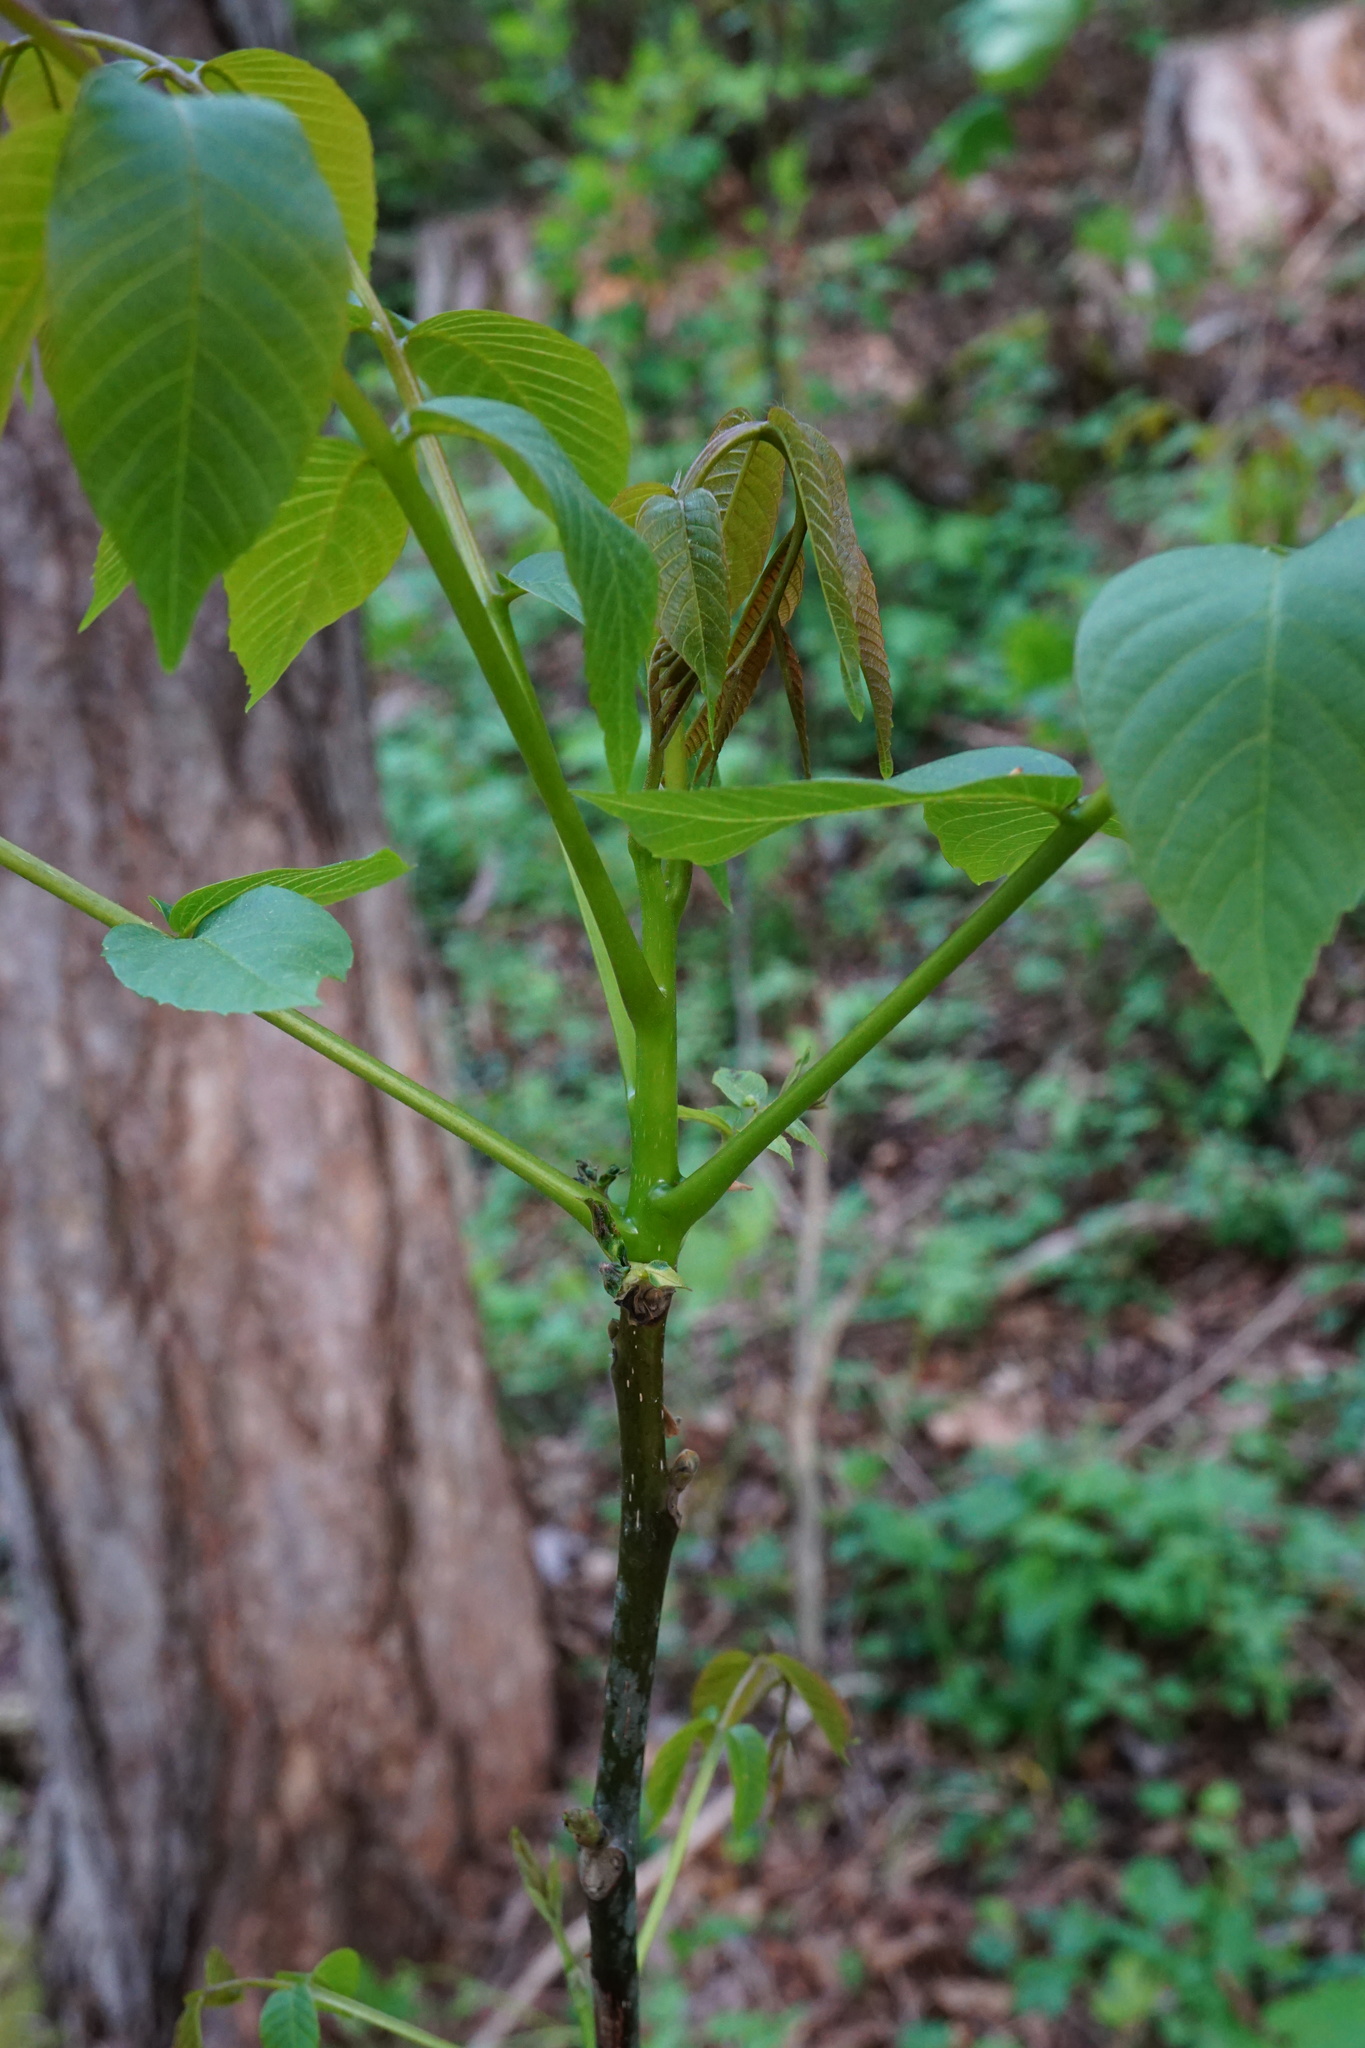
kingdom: Plantae
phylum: Tracheophyta
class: Magnoliopsida
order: Fagales
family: Juglandaceae
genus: Juglans
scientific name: Juglans regia
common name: Walnut
